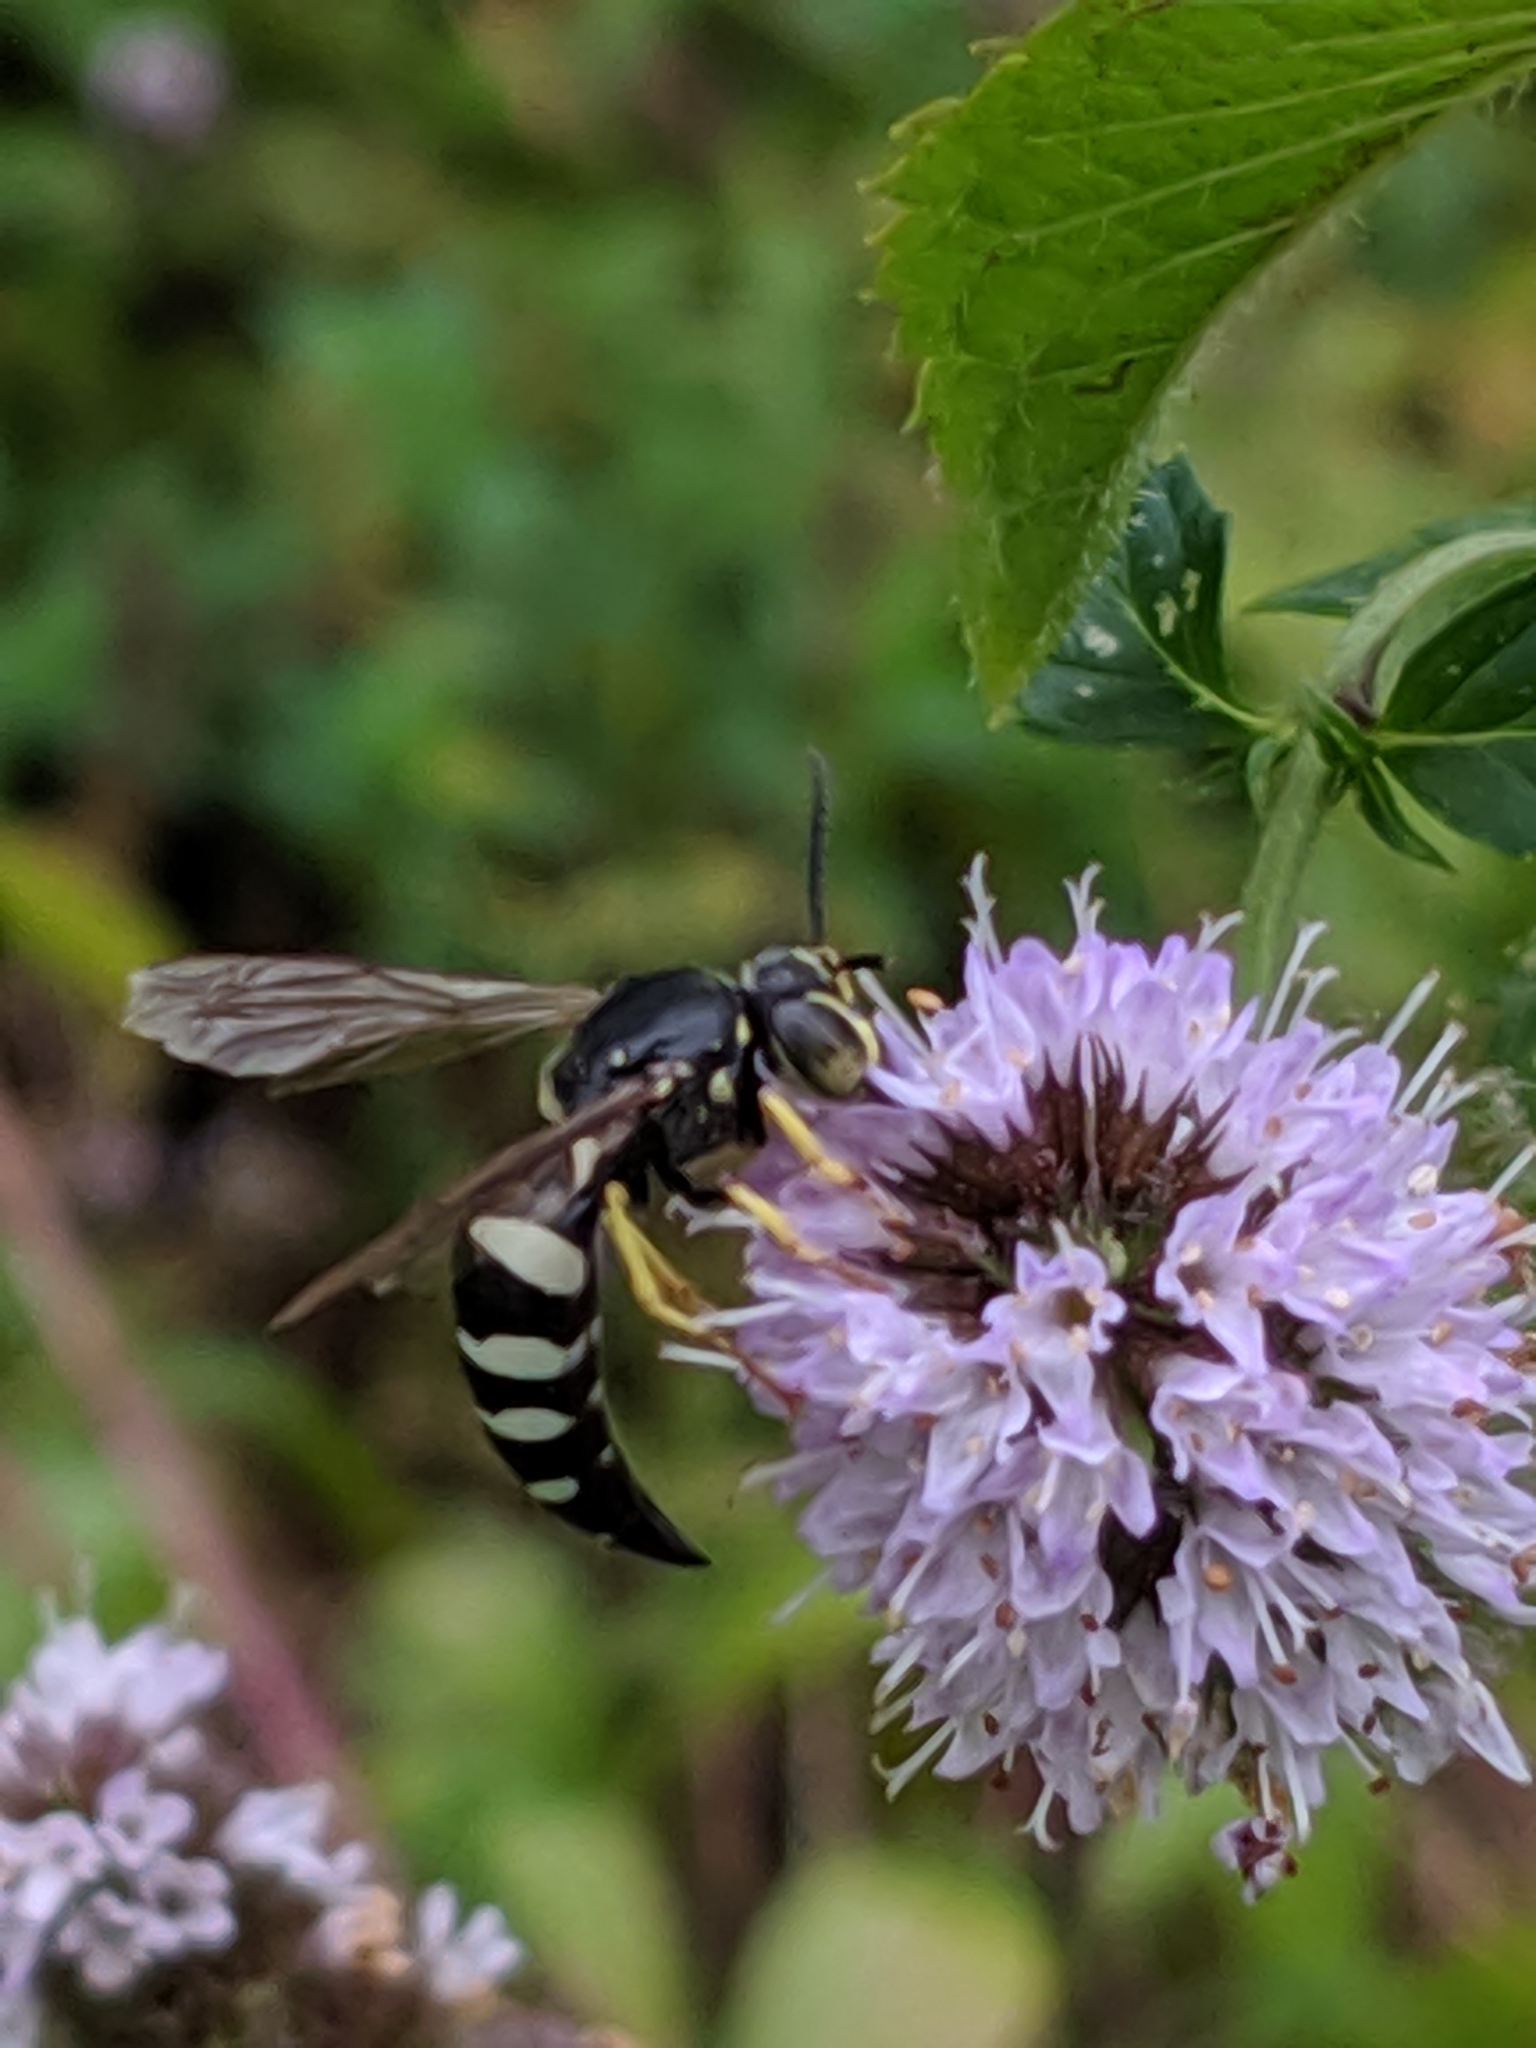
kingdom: Animalia
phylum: Arthropoda
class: Insecta
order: Hymenoptera
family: Crabronidae
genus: Bicyrtes
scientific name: Bicyrtes quadrifasciatus
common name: Four-banded stink bug hunter wasp
